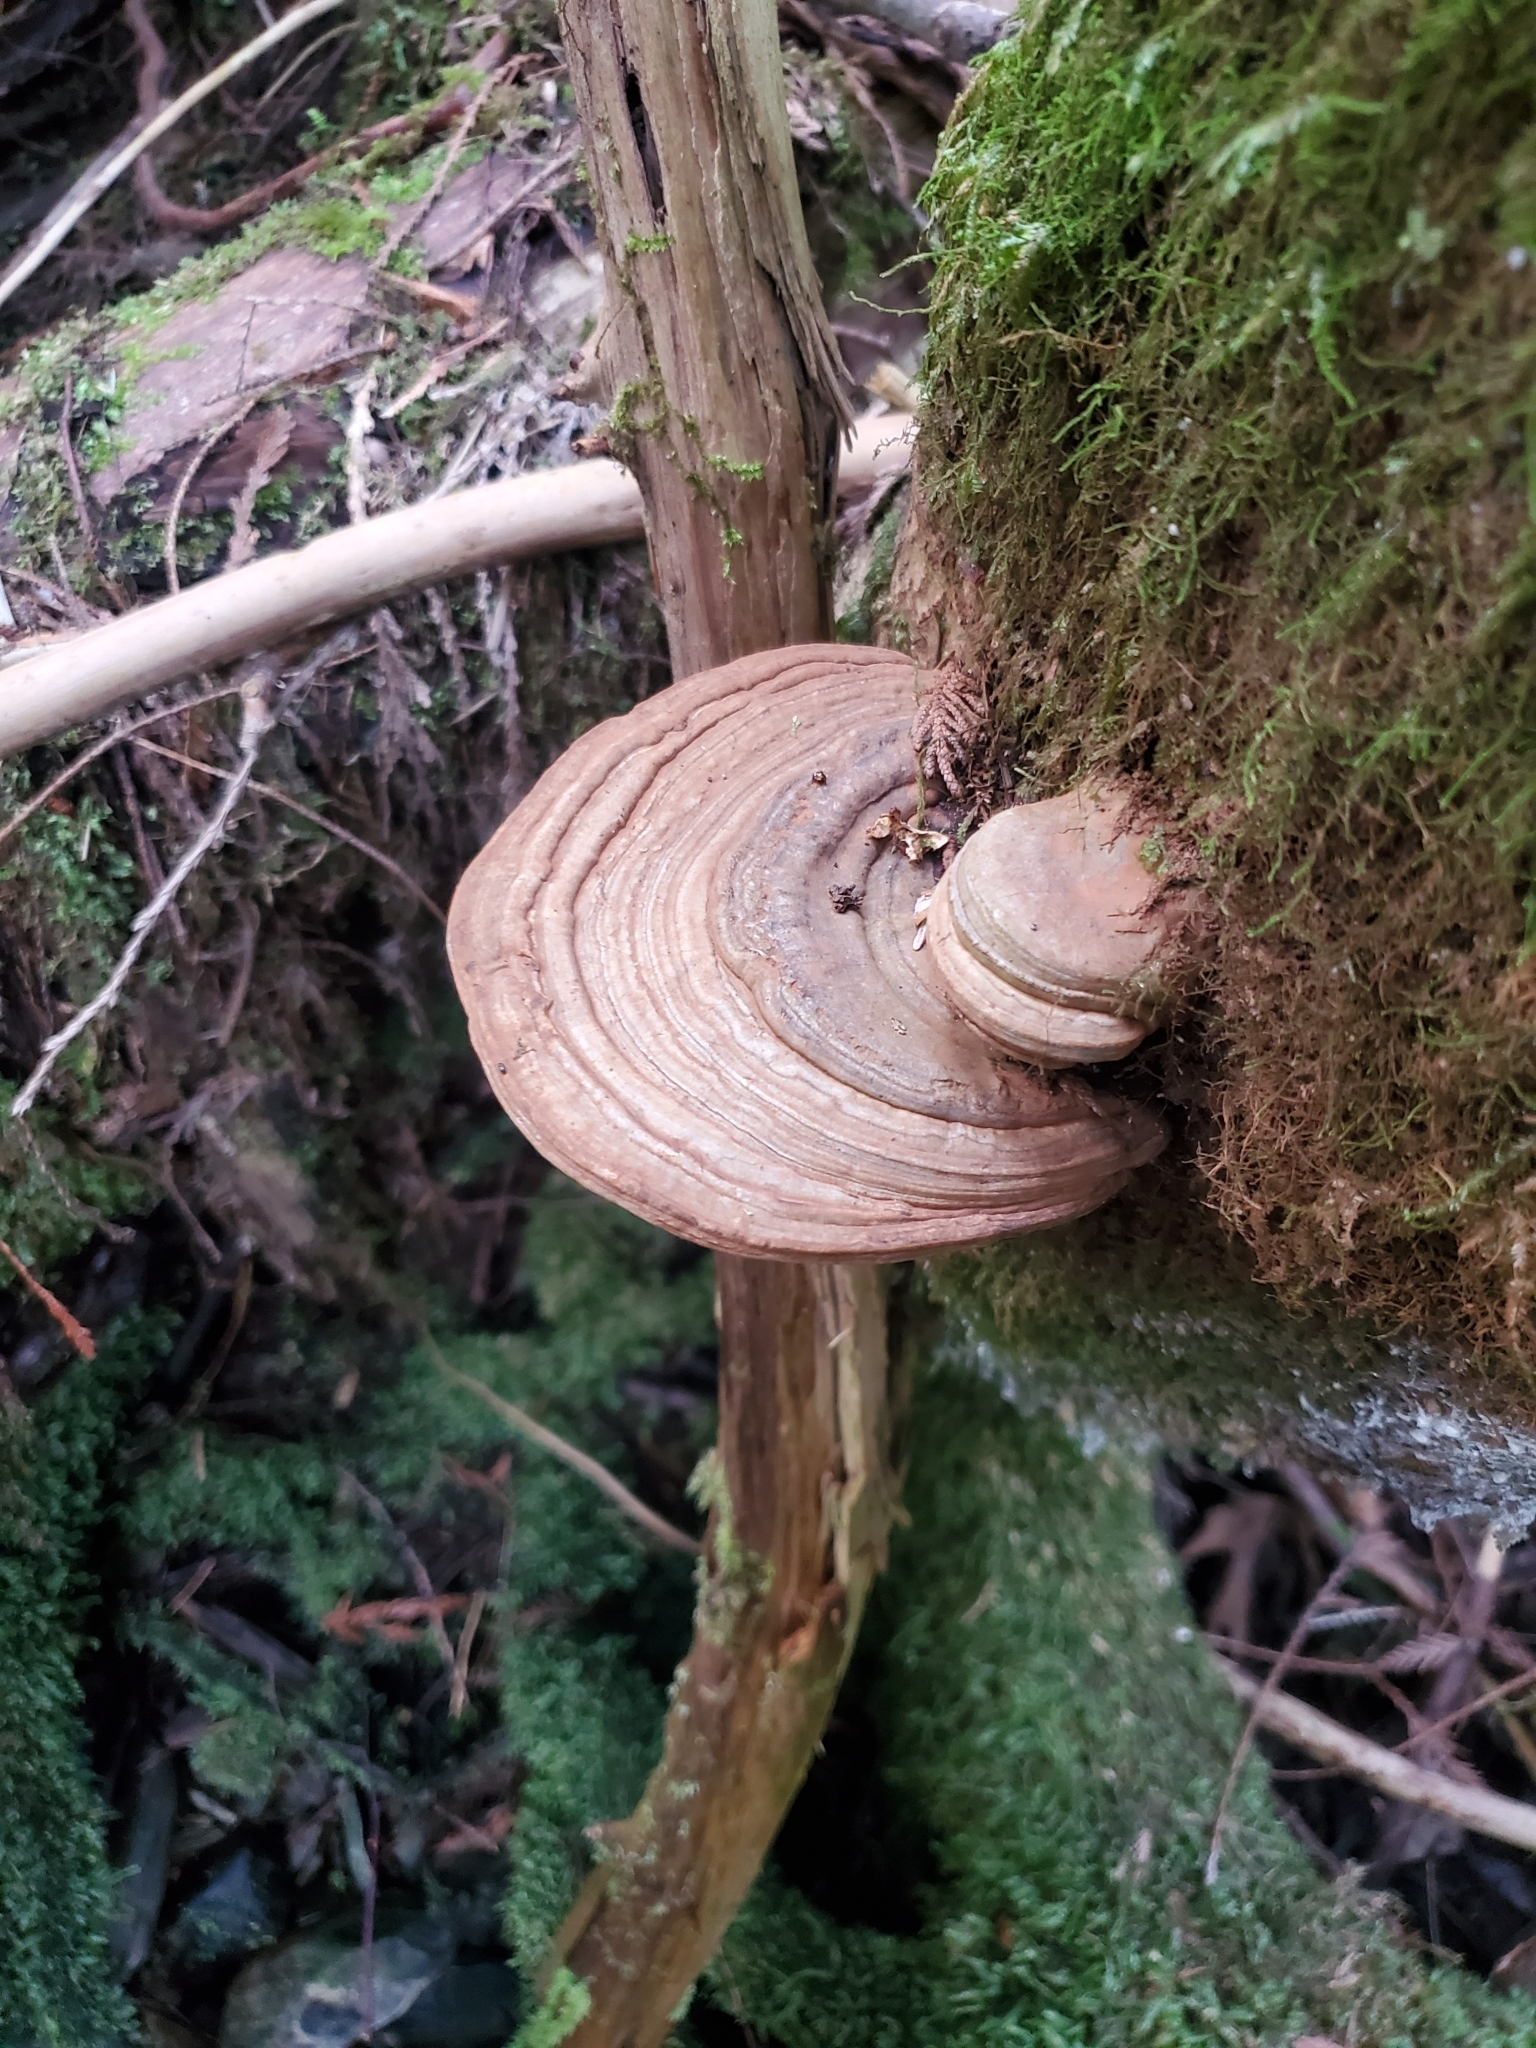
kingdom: Fungi
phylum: Basidiomycota
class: Agaricomycetes
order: Polyporales
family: Polyporaceae
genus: Ganoderma
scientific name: Ganoderma applanatum
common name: Artist's bracket
